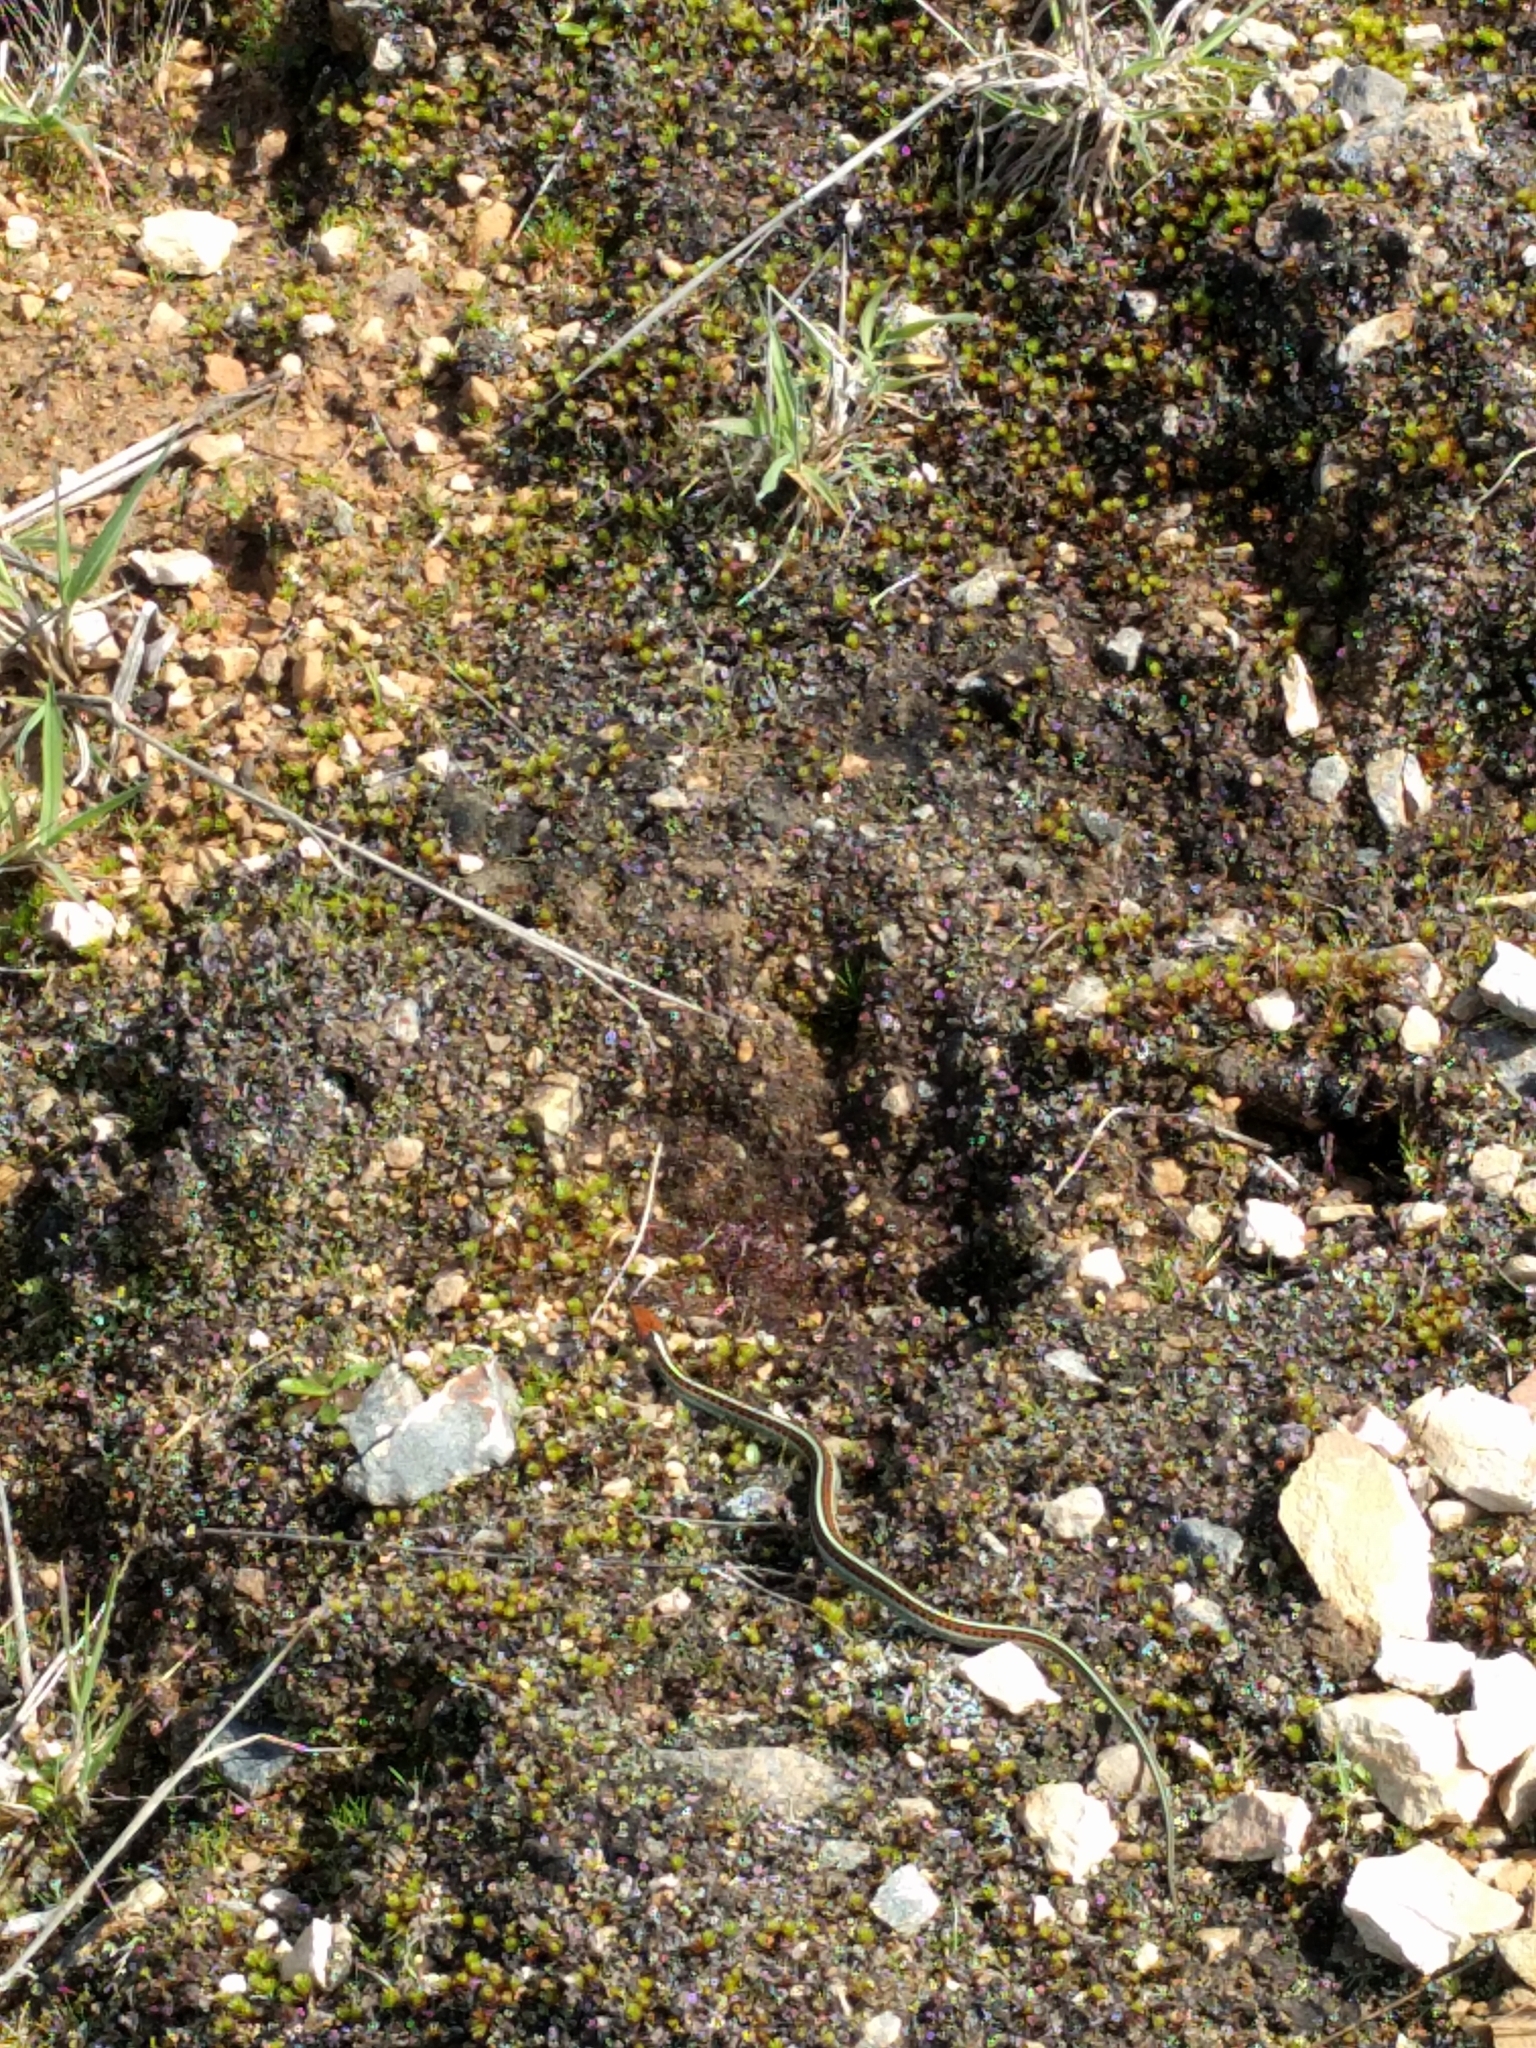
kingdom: Animalia
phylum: Chordata
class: Squamata
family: Colubridae
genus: Thamnophis
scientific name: Thamnophis sirtalis
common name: Common garter snake
